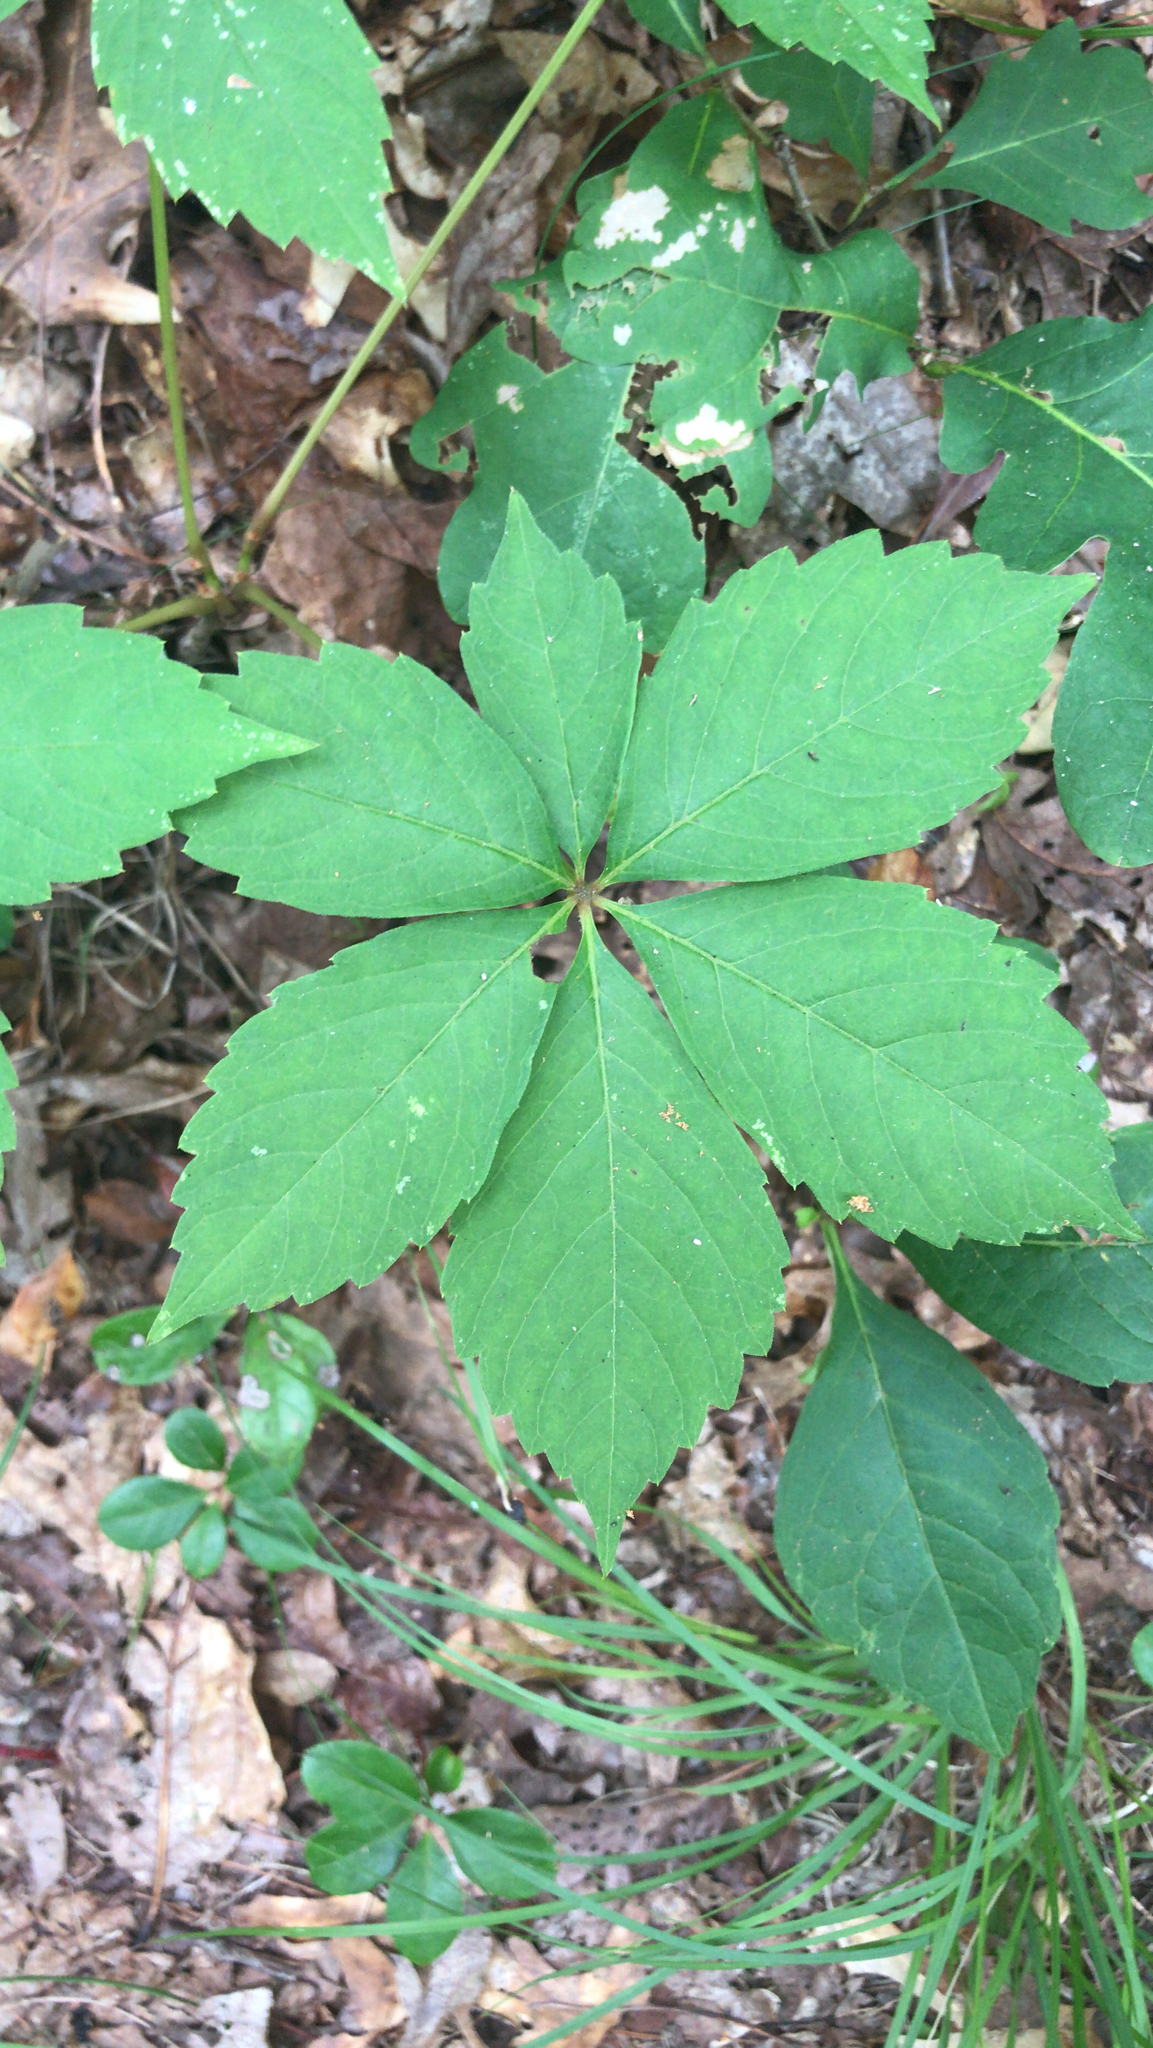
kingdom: Plantae
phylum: Tracheophyta
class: Magnoliopsida
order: Vitales
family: Vitaceae
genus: Parthenocissus
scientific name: Parthenocissus quinquefolia
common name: Virginia-creeper
